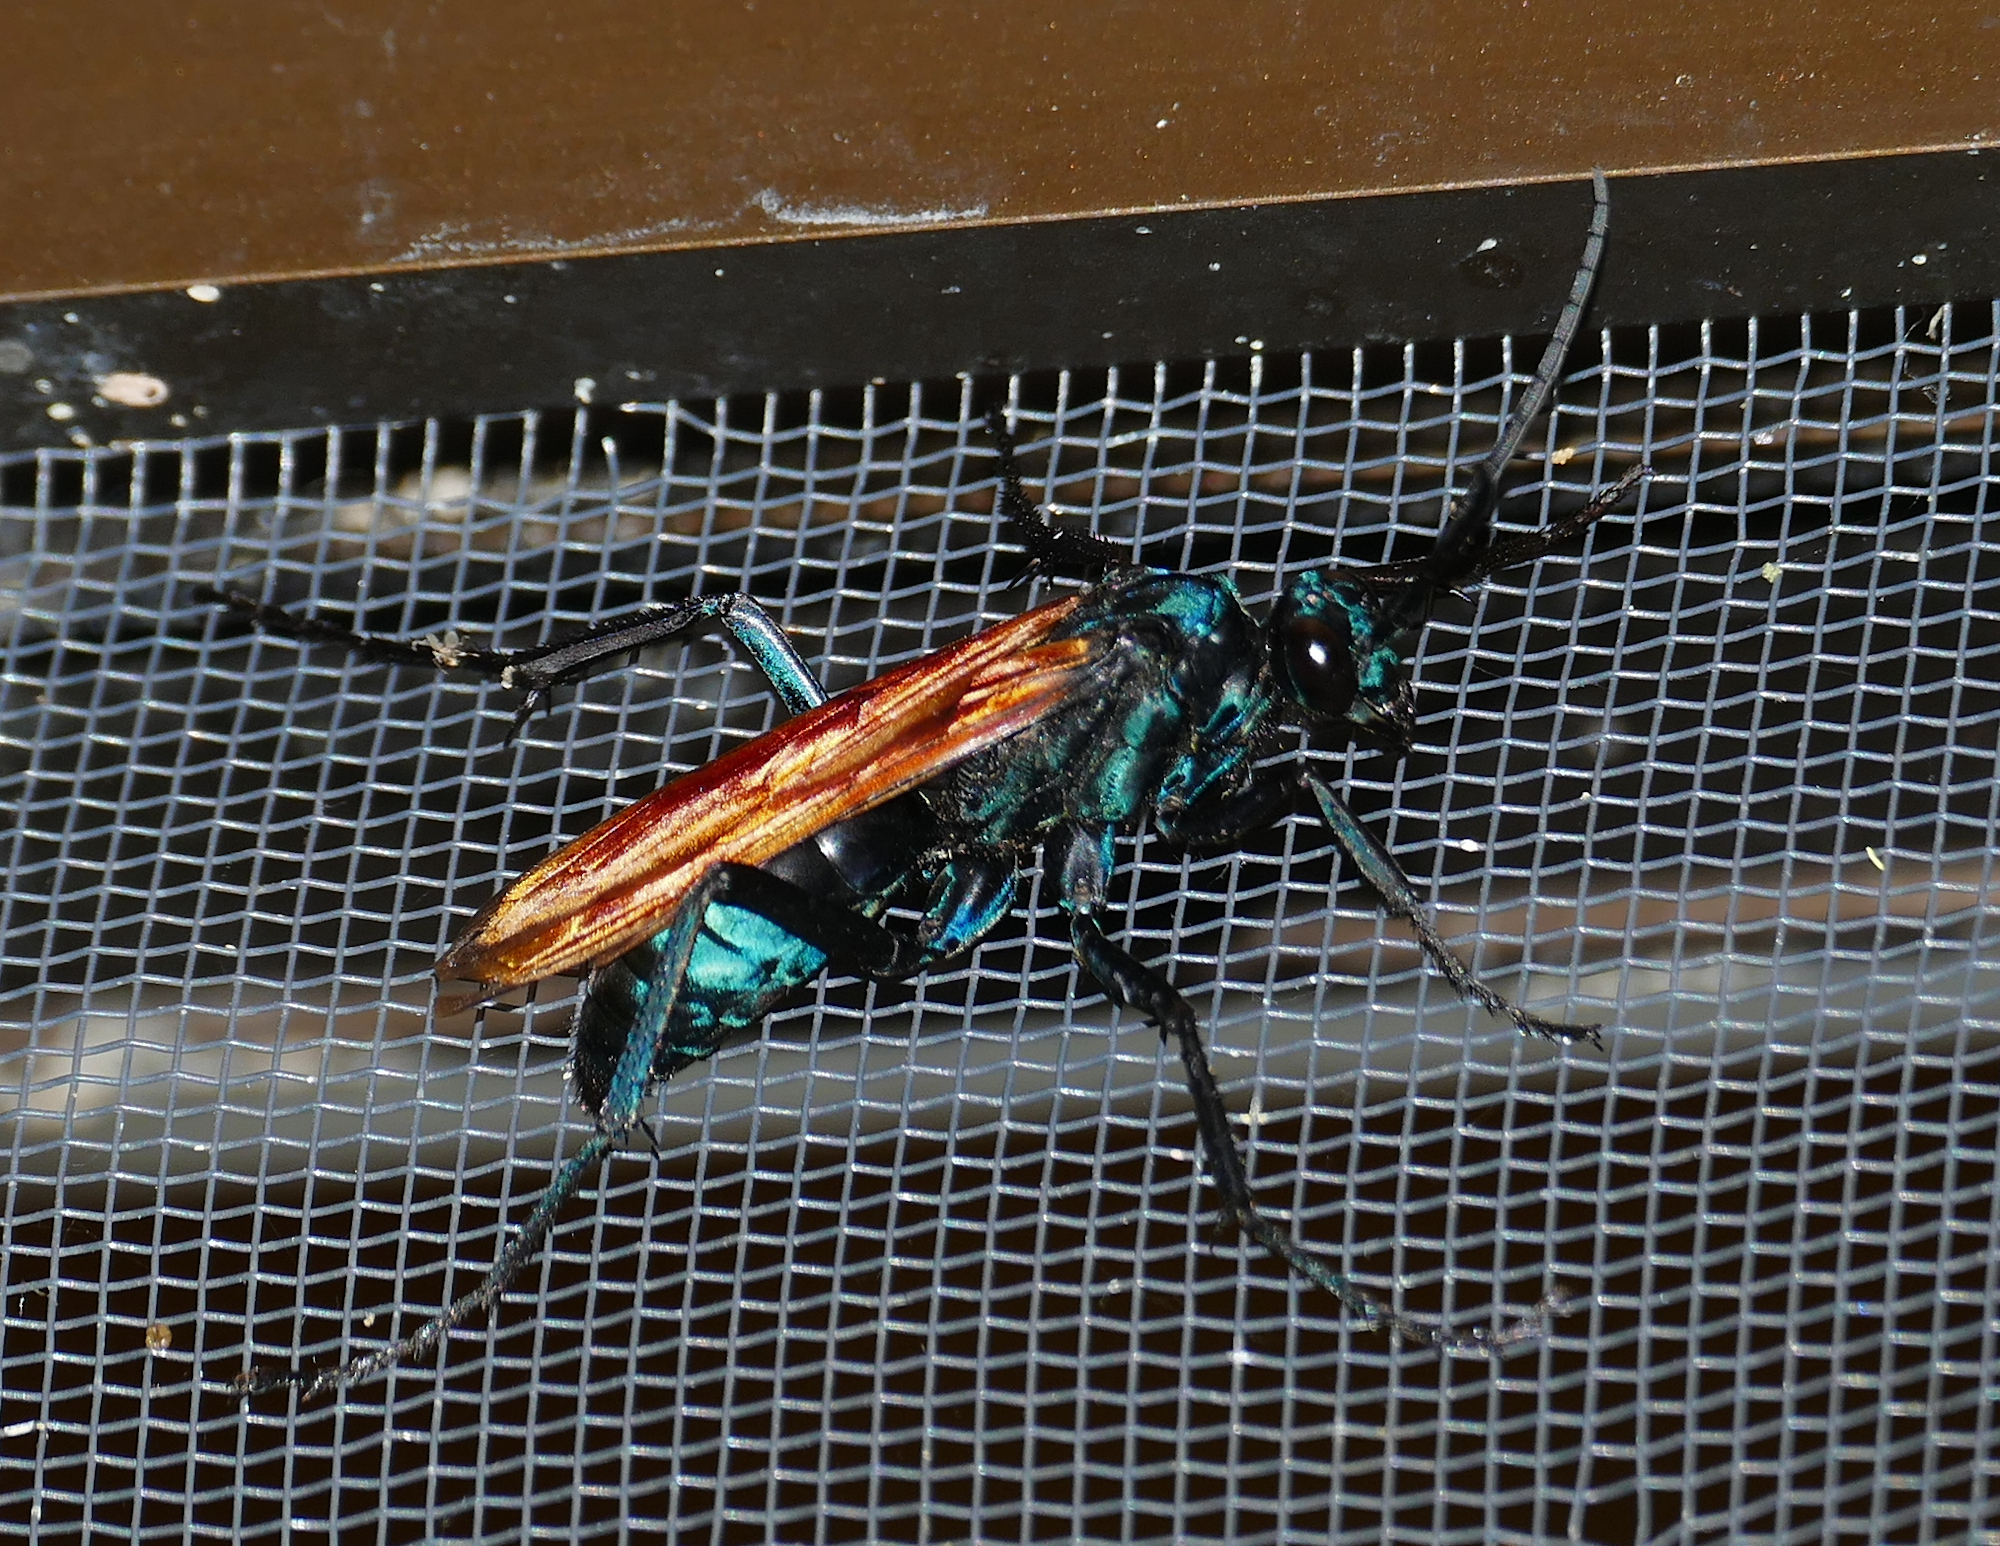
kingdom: Animalia
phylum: Arthropoda
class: Insecta
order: Hymenoptera
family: Pompilidae
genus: Pepsis
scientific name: Pepsis thisbe
